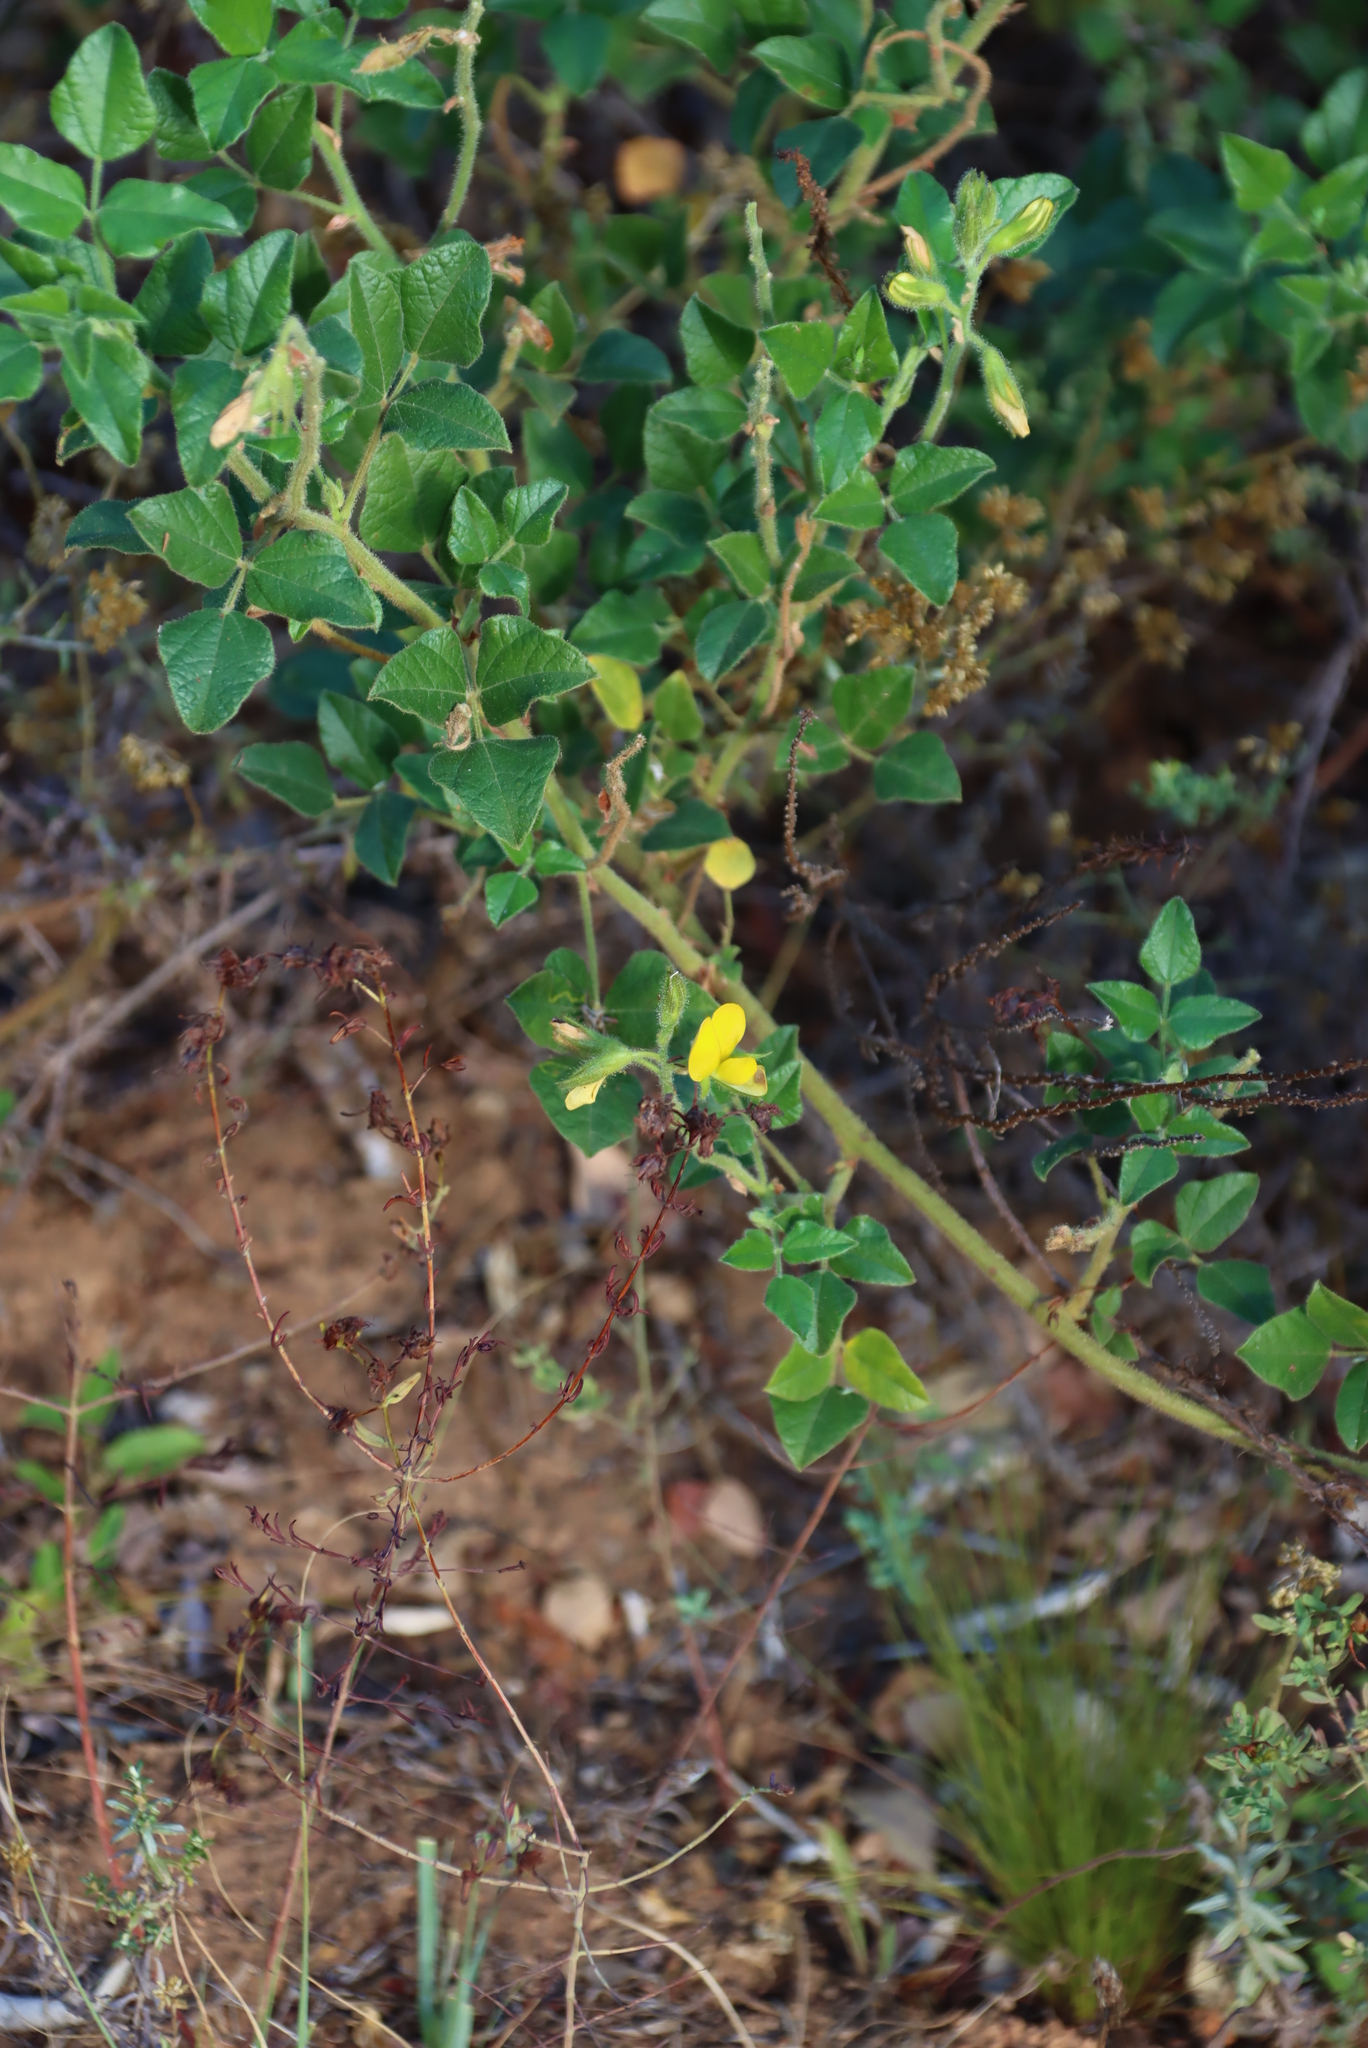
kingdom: Plantae
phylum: Tracheophyta
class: Magnoliopsida
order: Fabales
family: Fabaceae
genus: Bolusafra
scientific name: Bolusafra bituminosa
